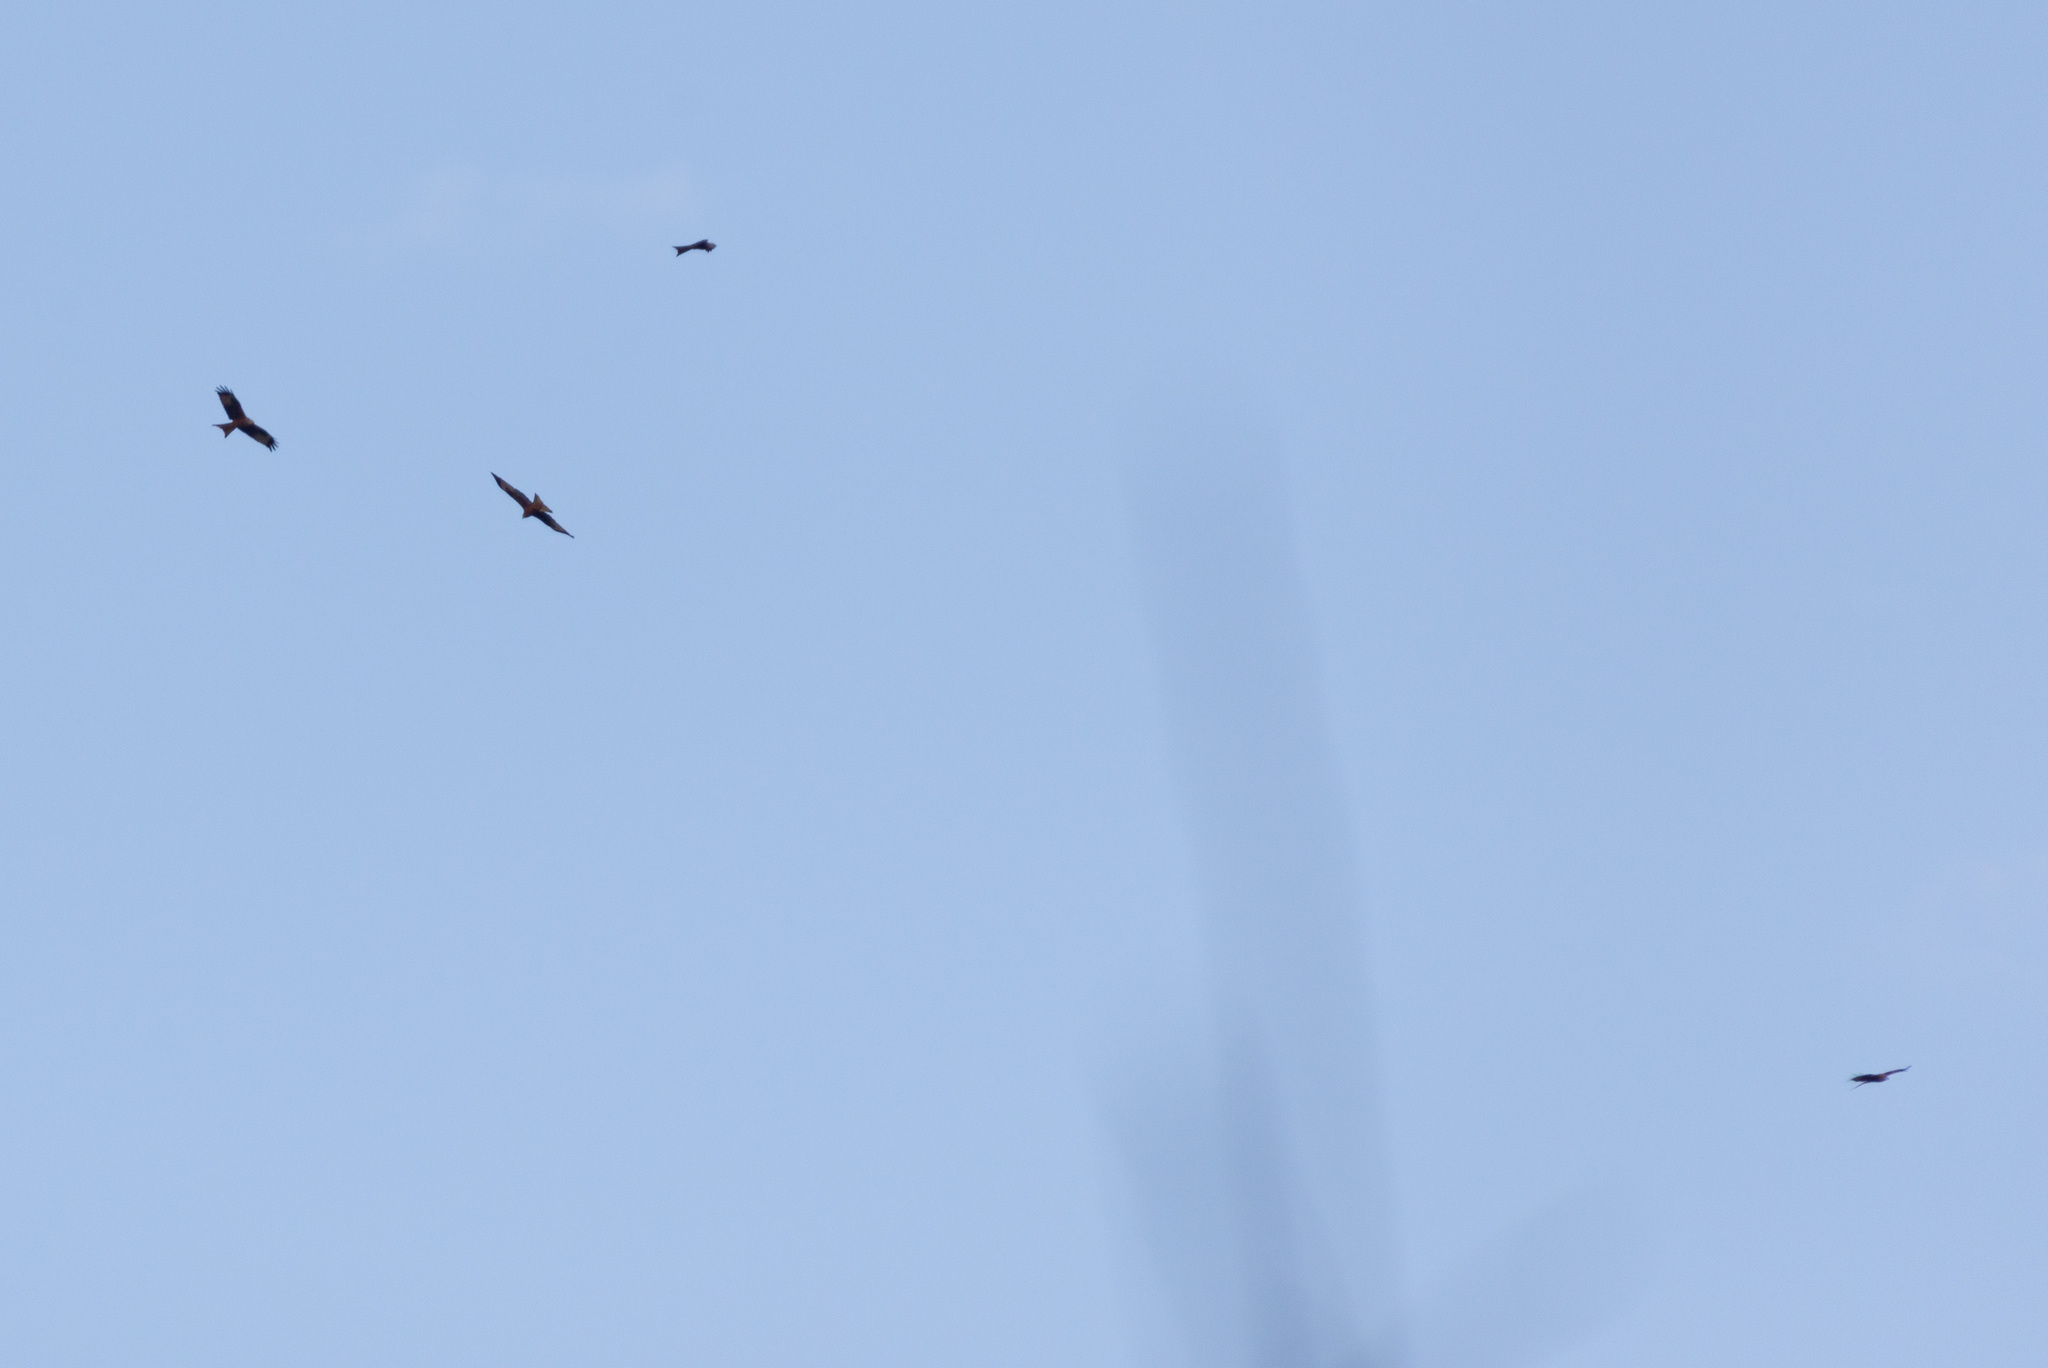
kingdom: Animalia
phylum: Chordata
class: Aves
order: Accipitriformes
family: Accipitridae
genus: Milvus
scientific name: Milvus milvus
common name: Red kite
